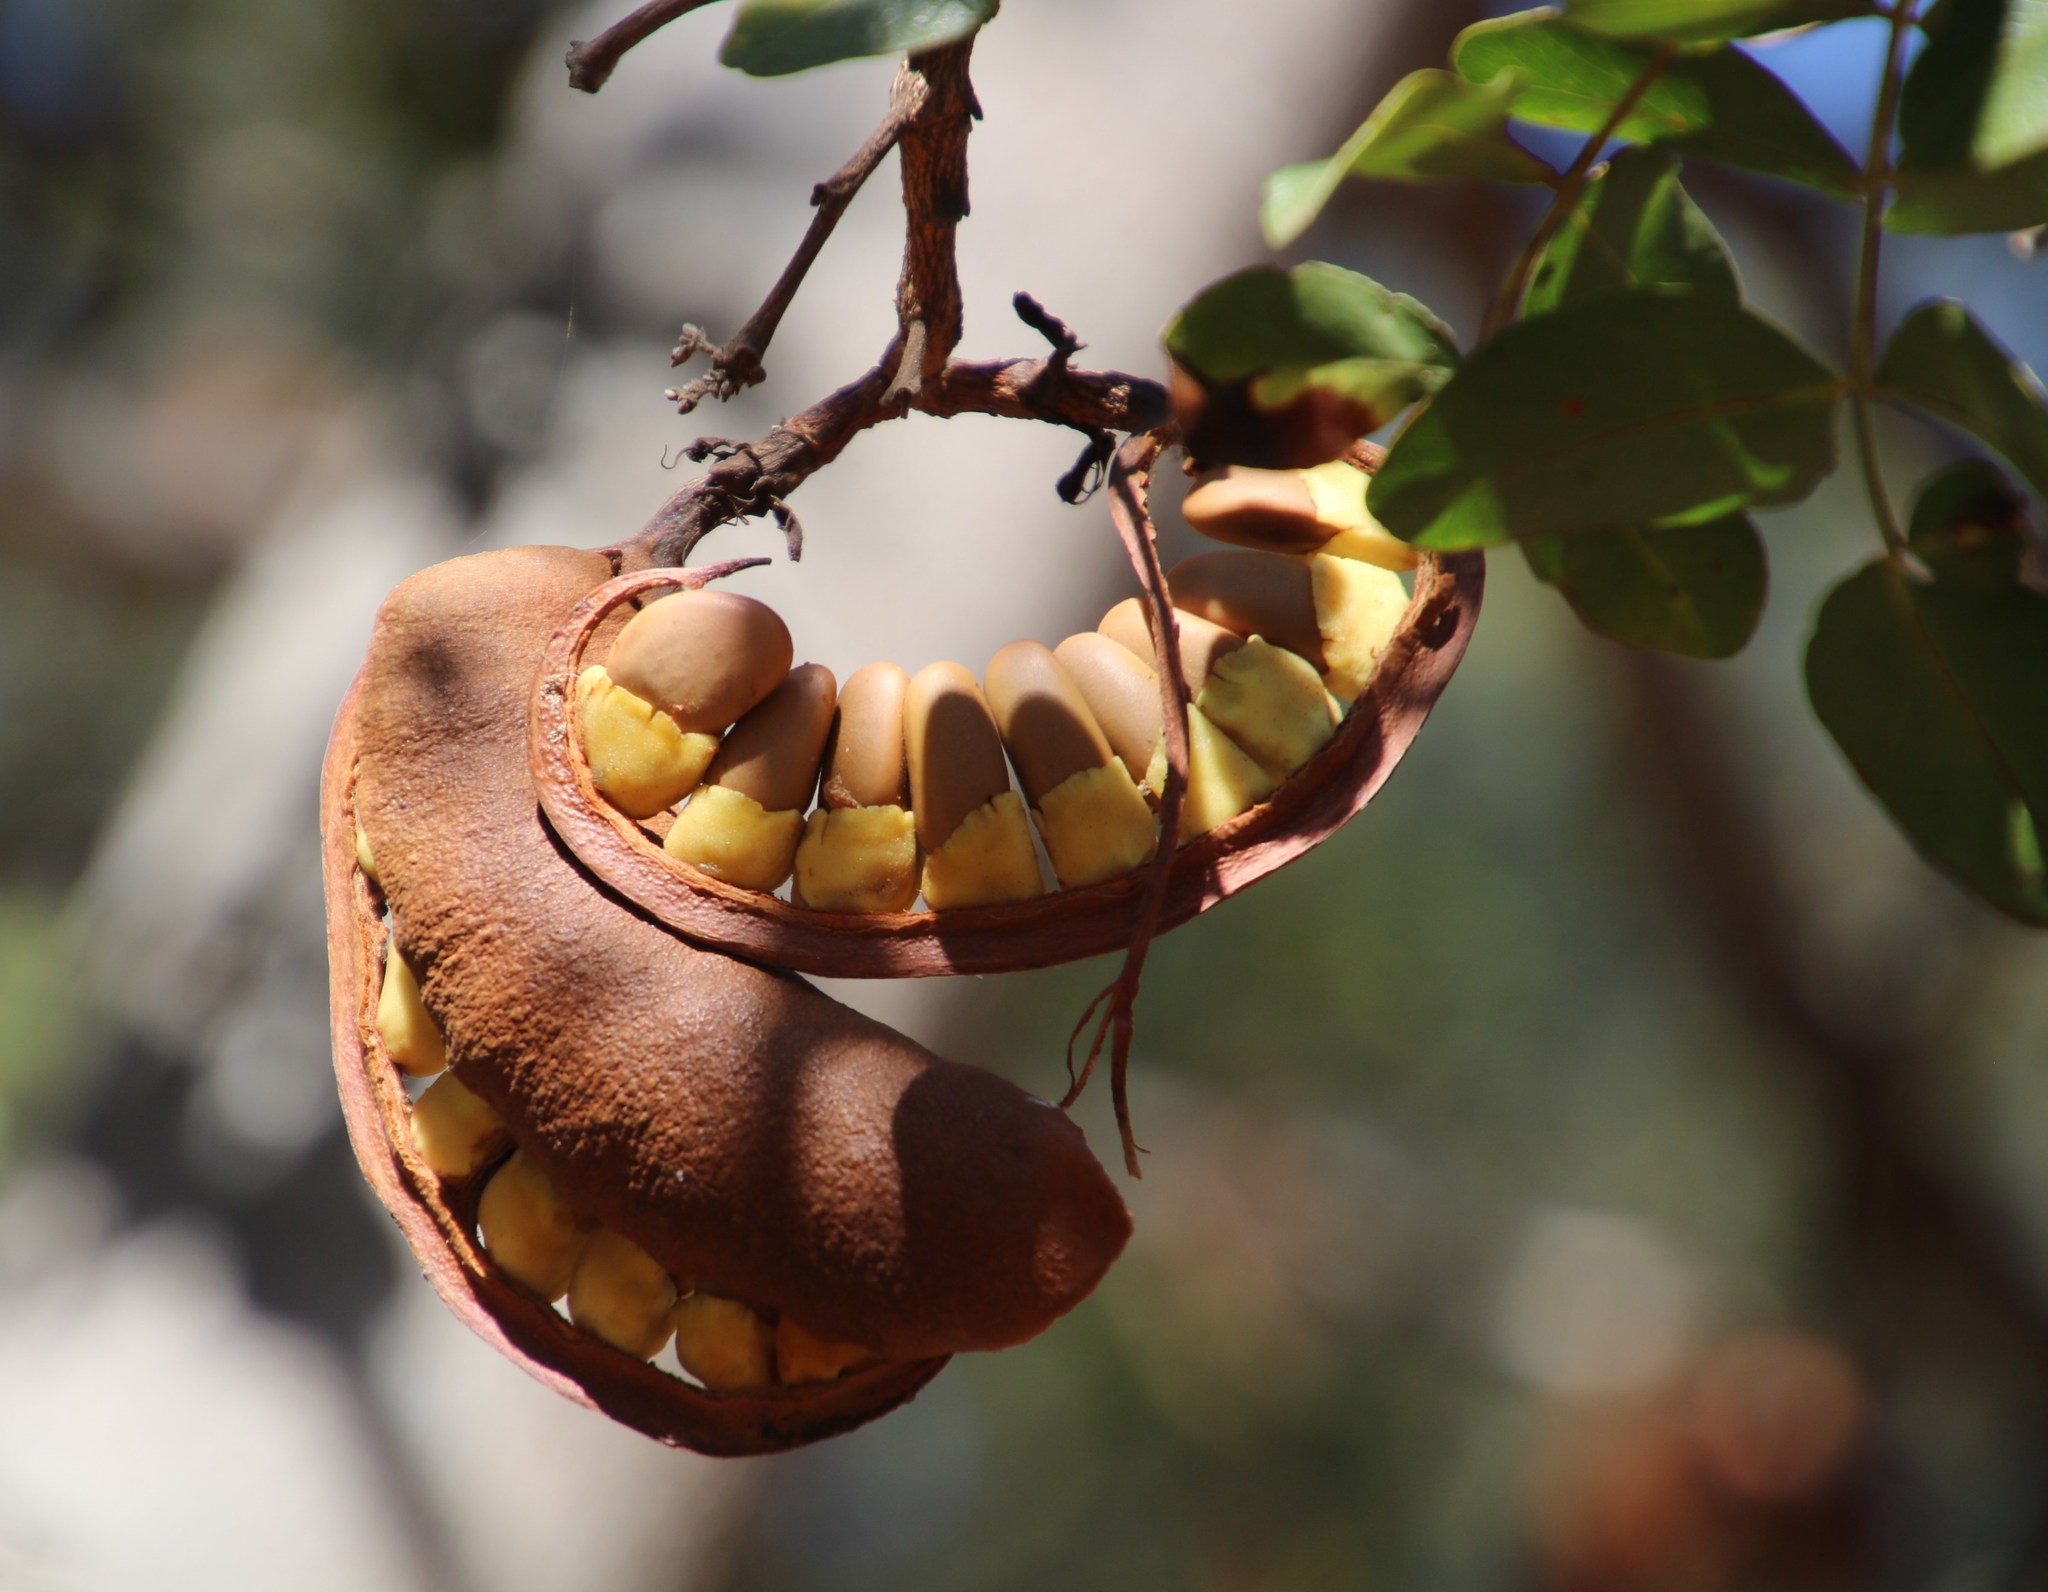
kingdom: Plantae
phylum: Tracheophyta
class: Magnoliopsida
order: Fabales
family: Fabaceae
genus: Schotia
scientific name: Schotia brachypetala
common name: Weeping boer-bean
